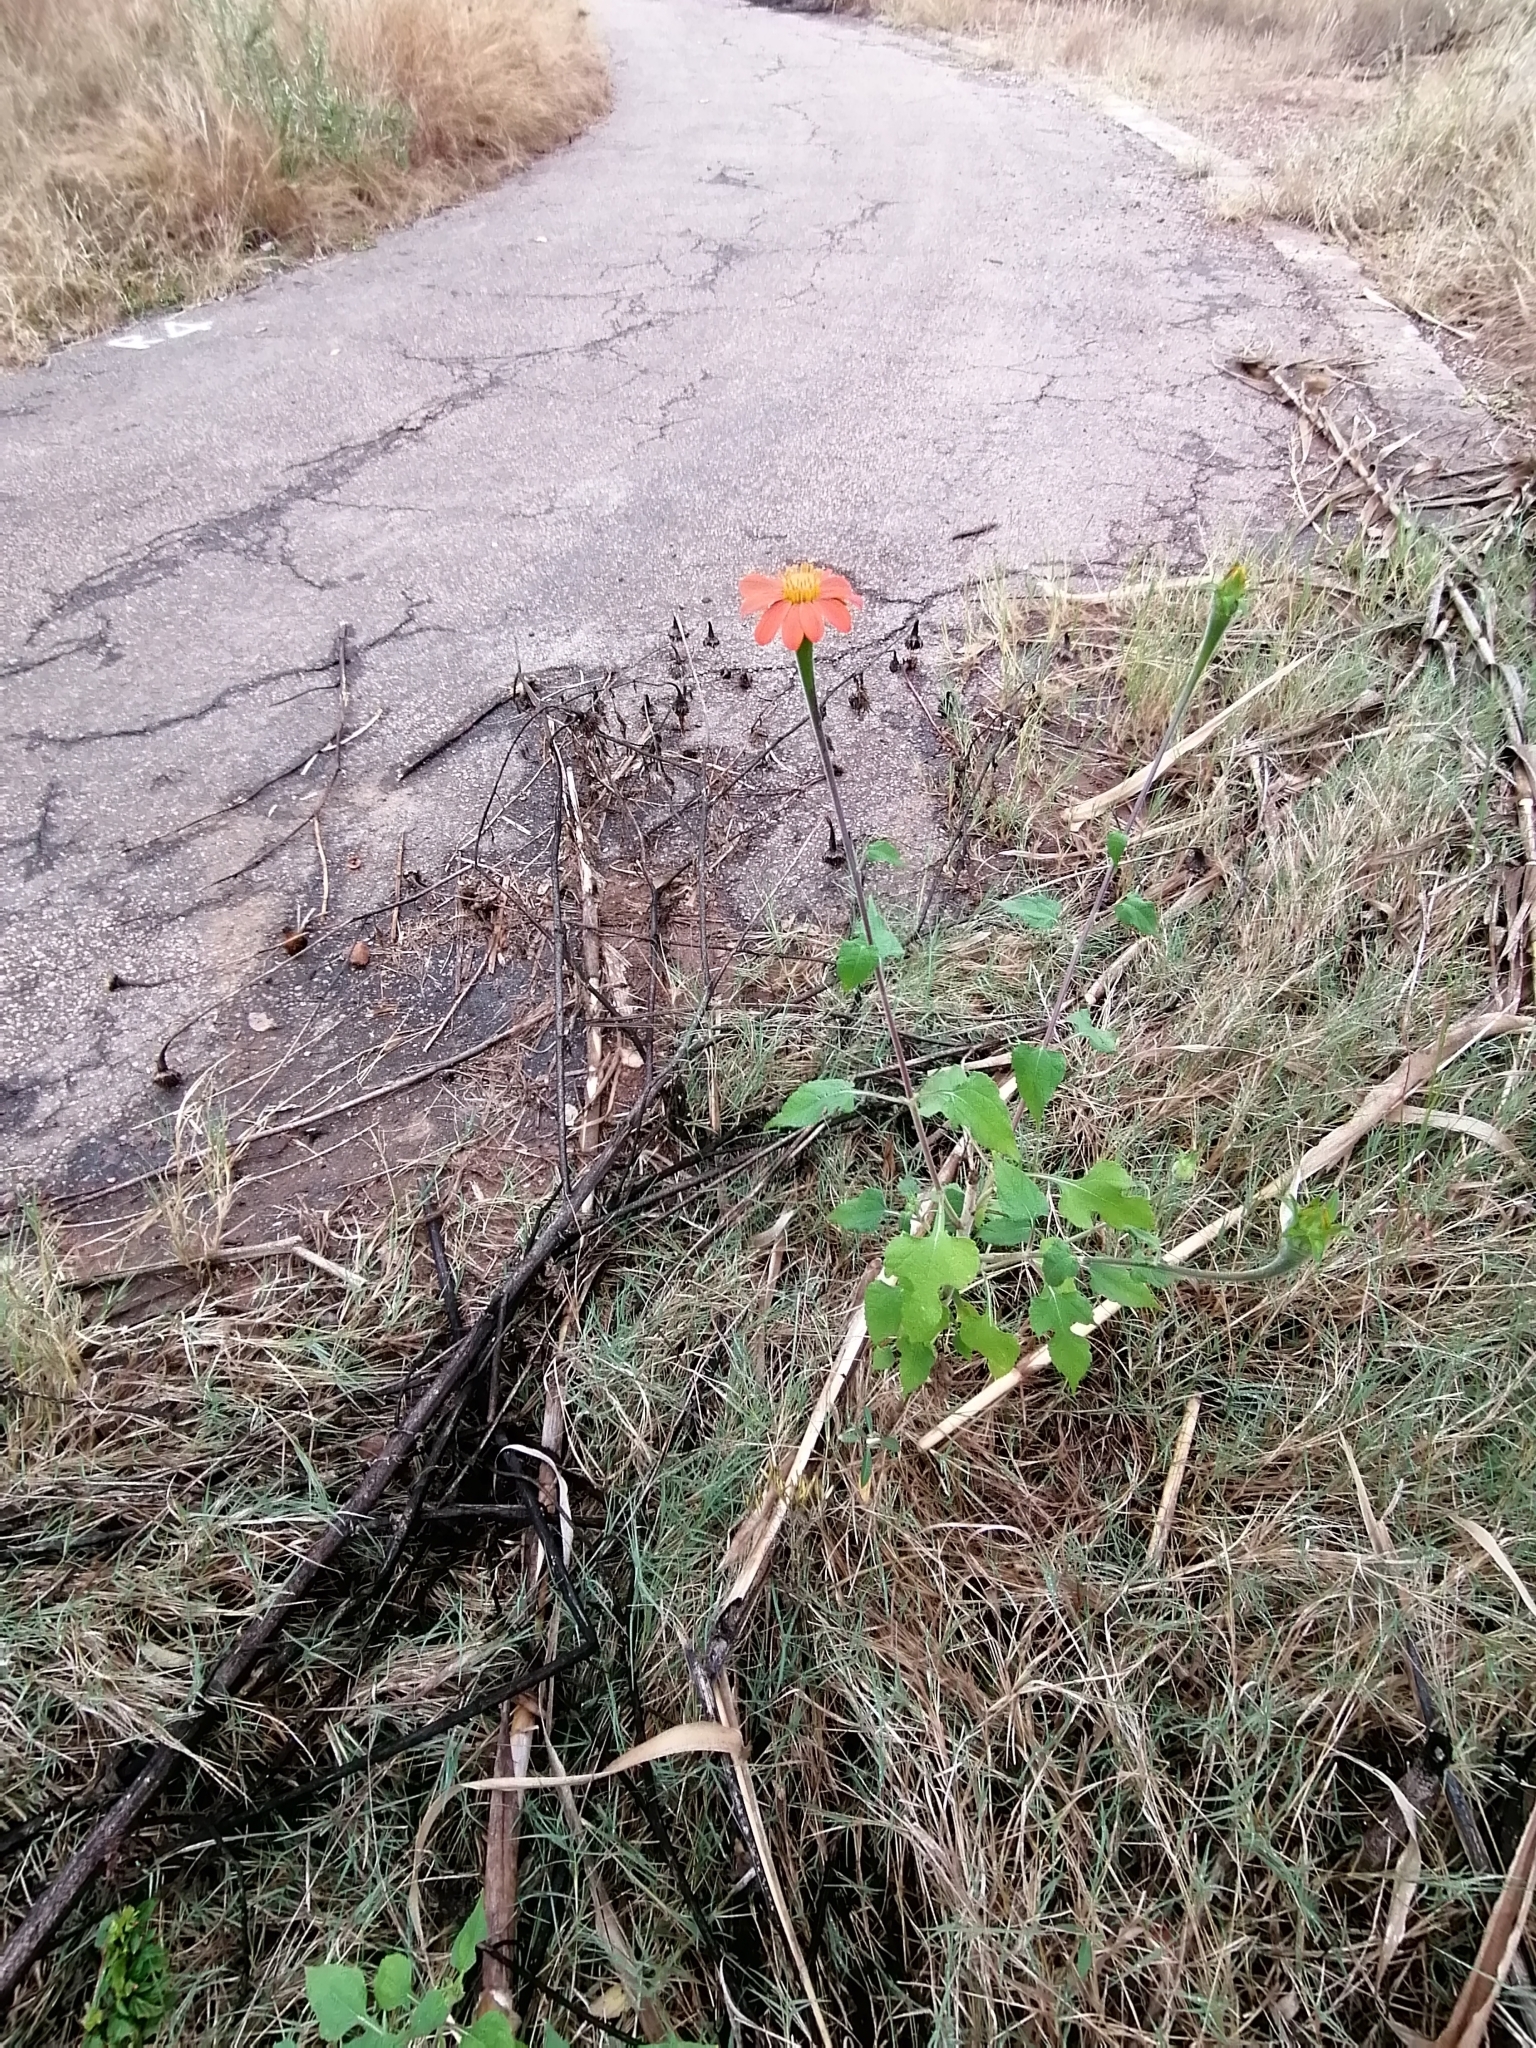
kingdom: Plantae
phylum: Tracheophyta
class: Magnoliopsida
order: Asterales
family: Asteraceae
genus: Tithonia
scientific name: Tithonia rotundifolia
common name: Sunflower
